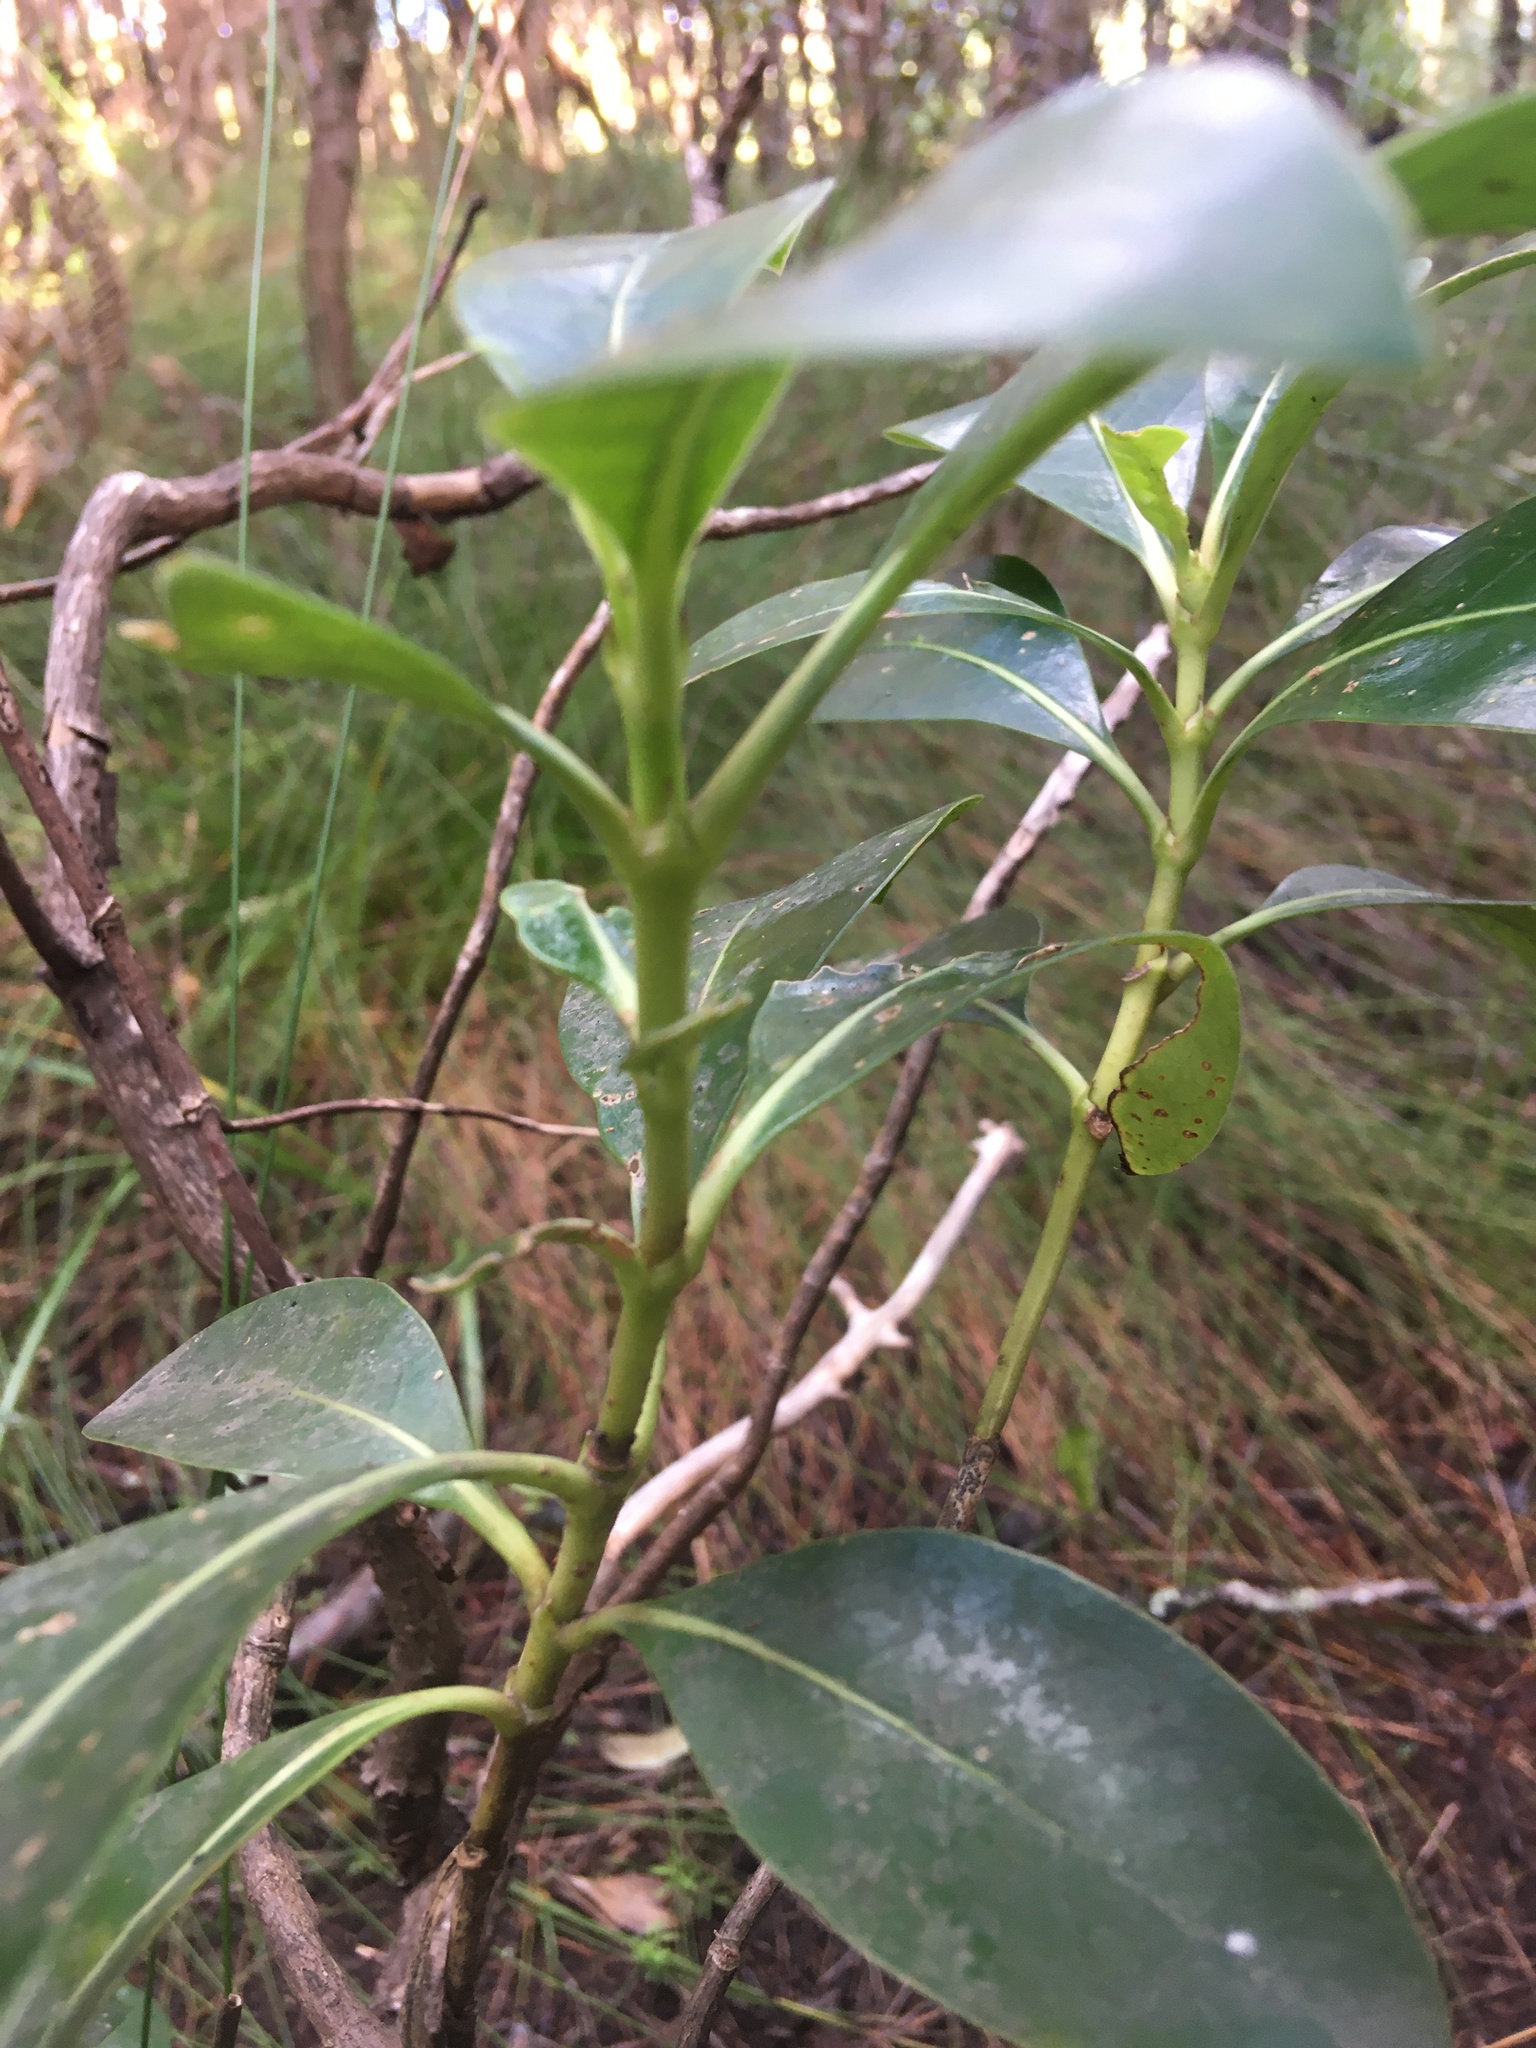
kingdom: Plantae
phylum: Tracheophyta
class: Magnoliopsida
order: Gentianales
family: Rubiaceae
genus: Coprosma
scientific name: Coprosma lucida
